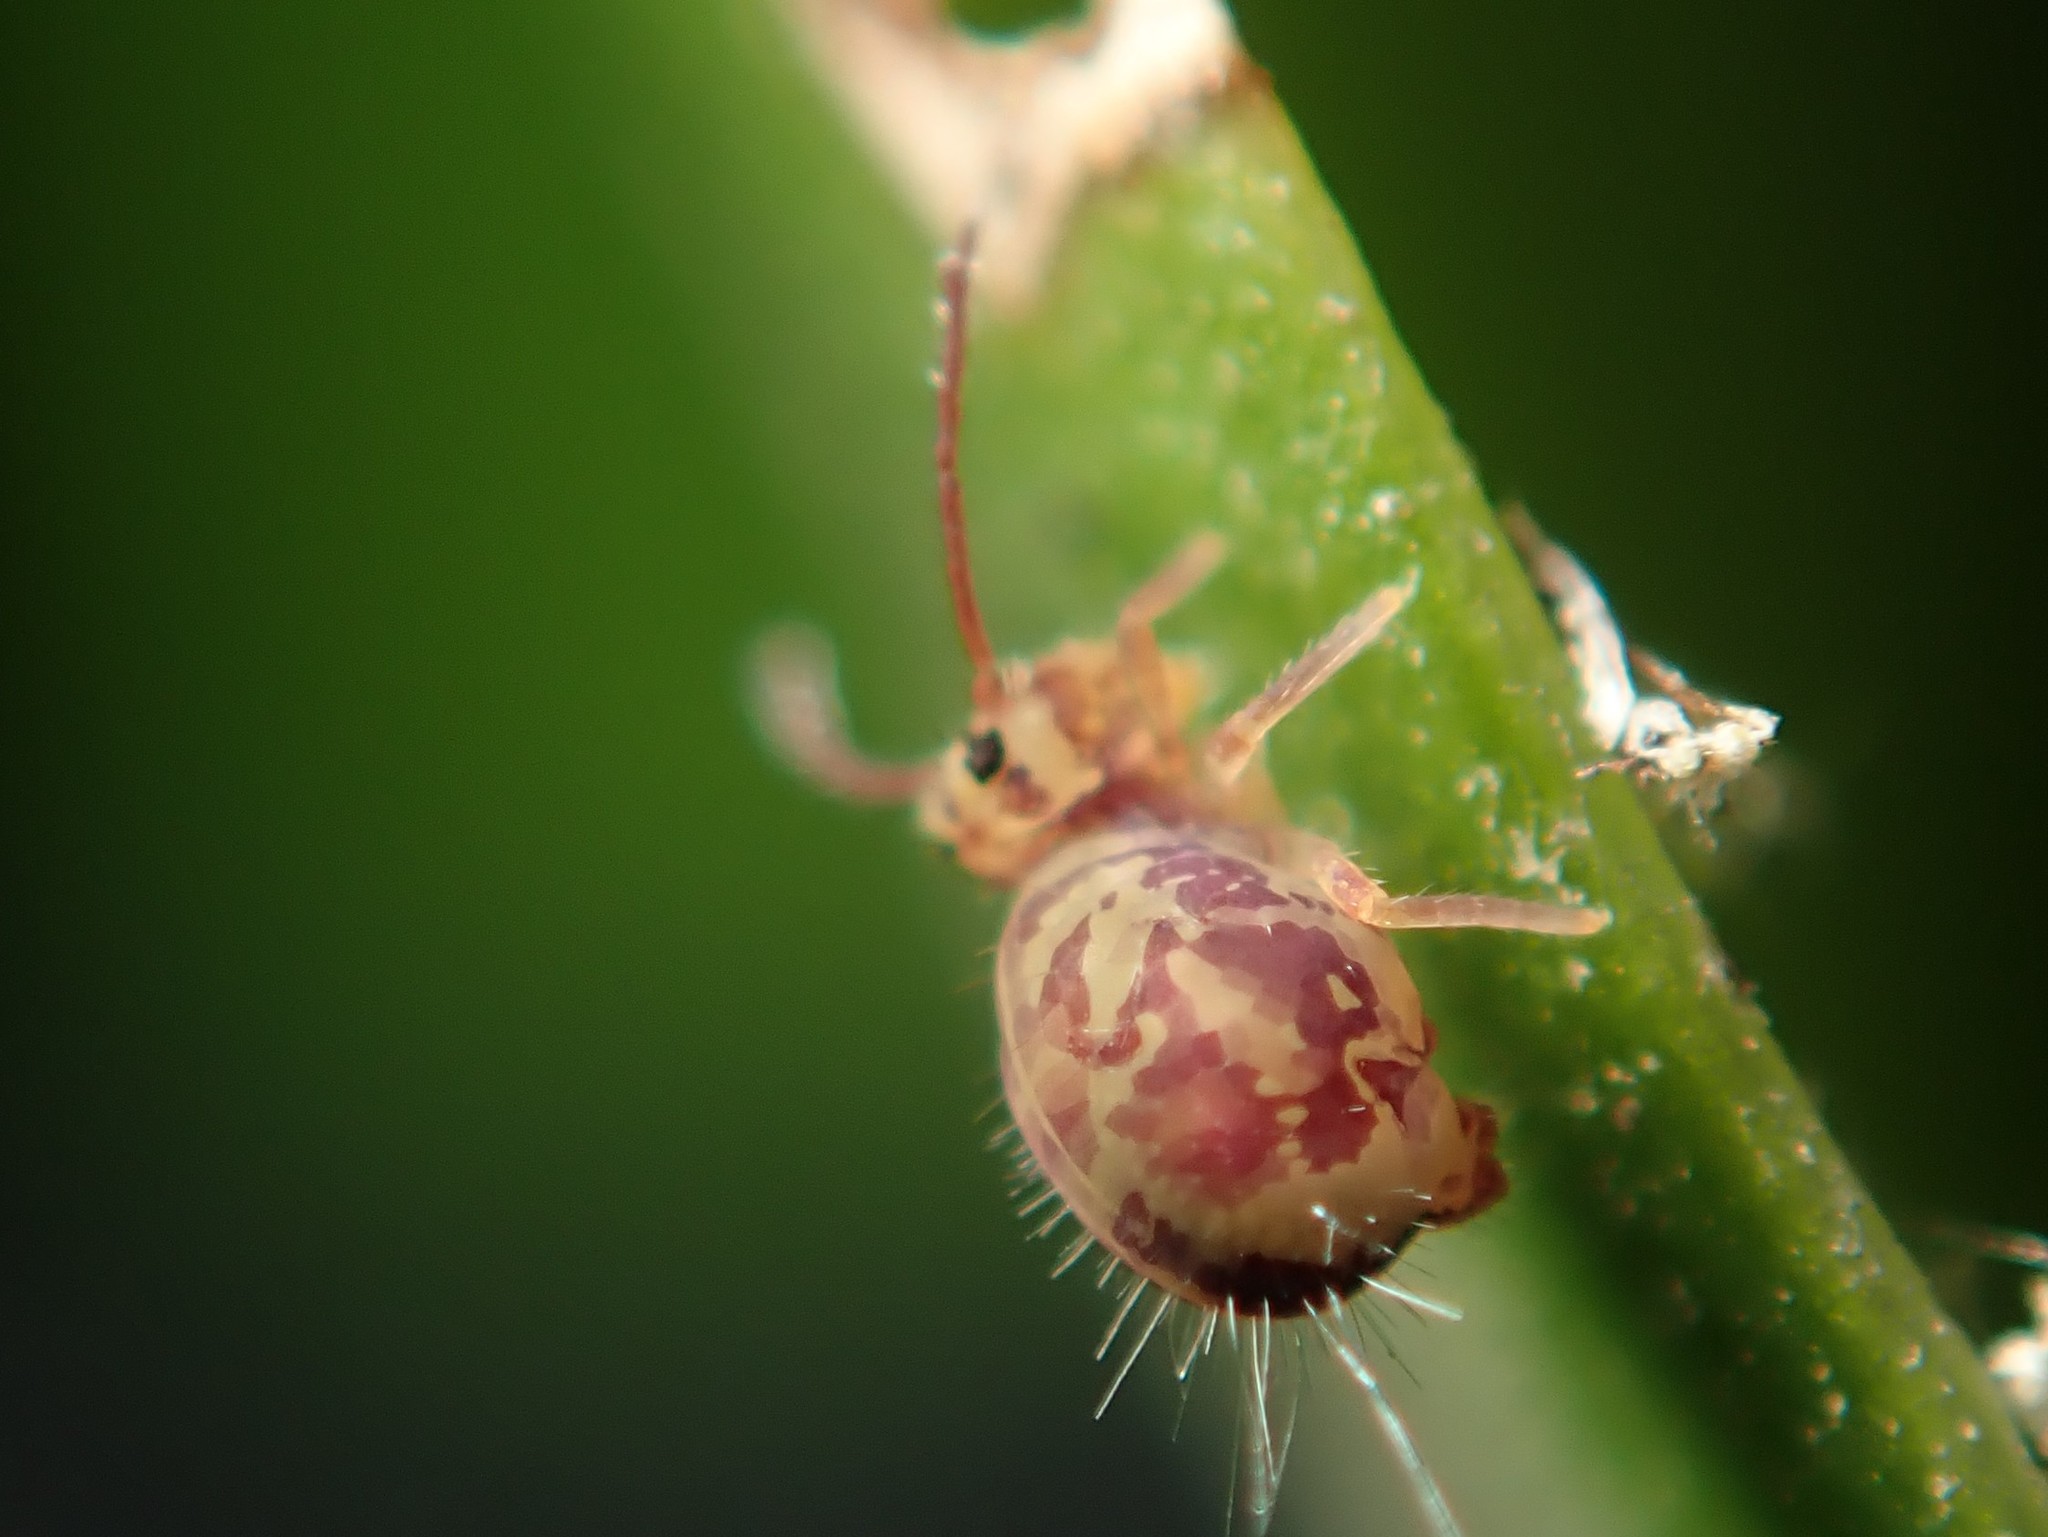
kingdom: Animalia
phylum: Arthropoda
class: Collembola
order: Symphypleona
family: Dicyrtomidae
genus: Dicyrtomina
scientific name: Dicyrtomina ornata
